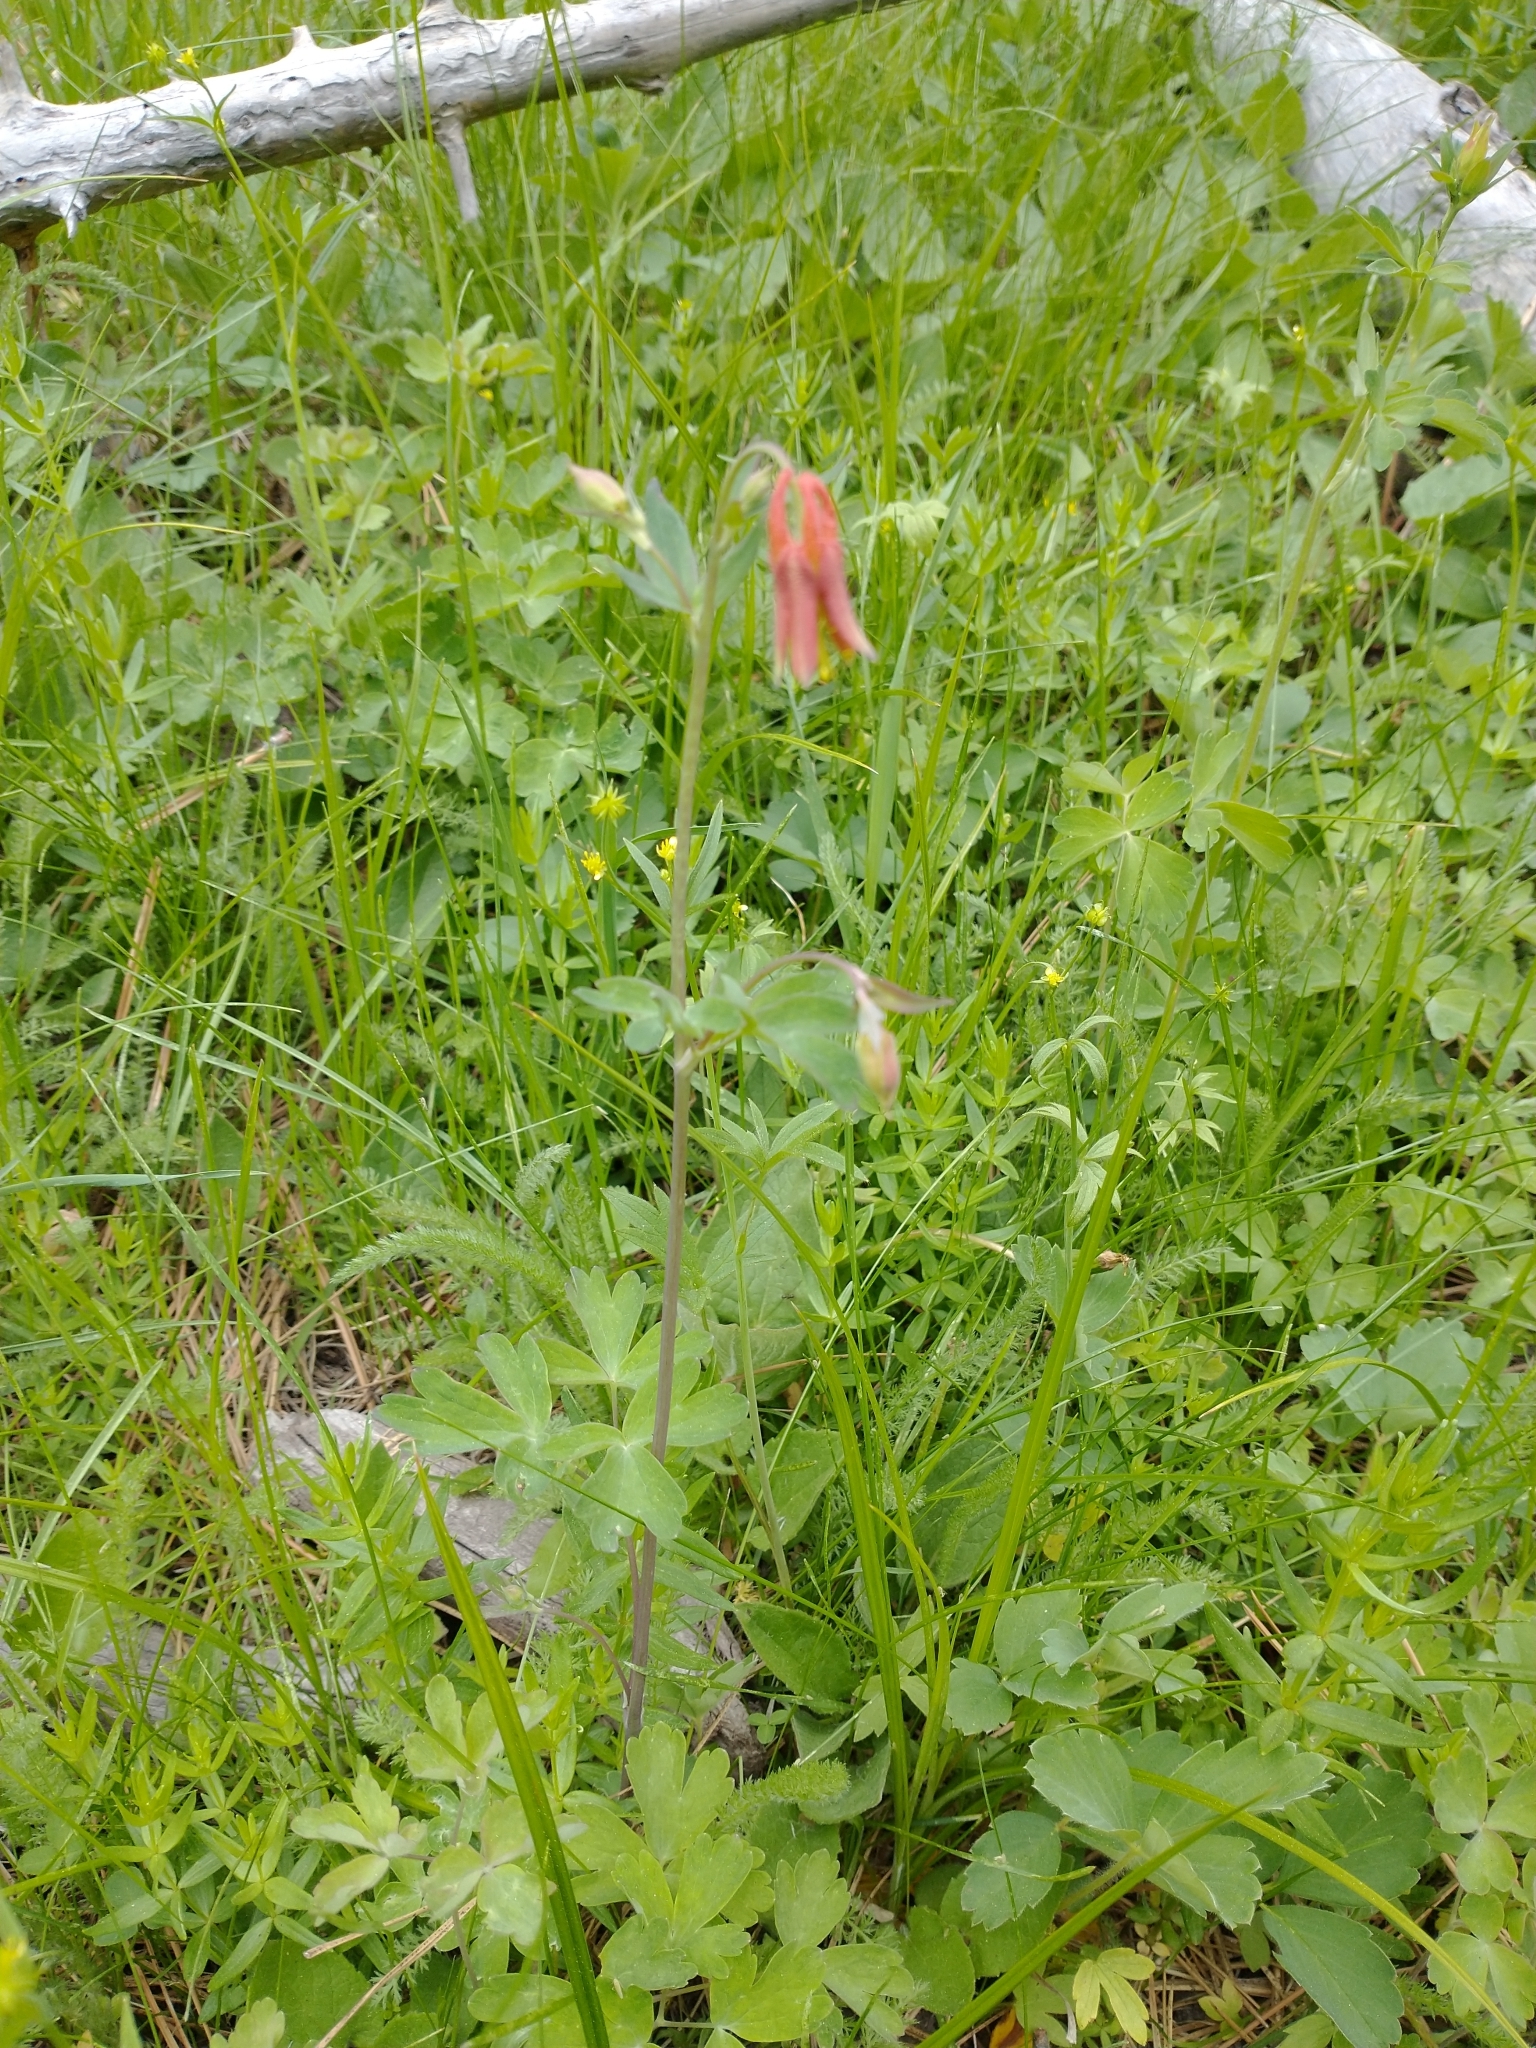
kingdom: Plantae
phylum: Tracheophyta
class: Magnoliopsida
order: Ranunculales
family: Ranunculaceae
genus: Aquilegia
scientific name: Aquilegia formosa
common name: Sitka columbine
